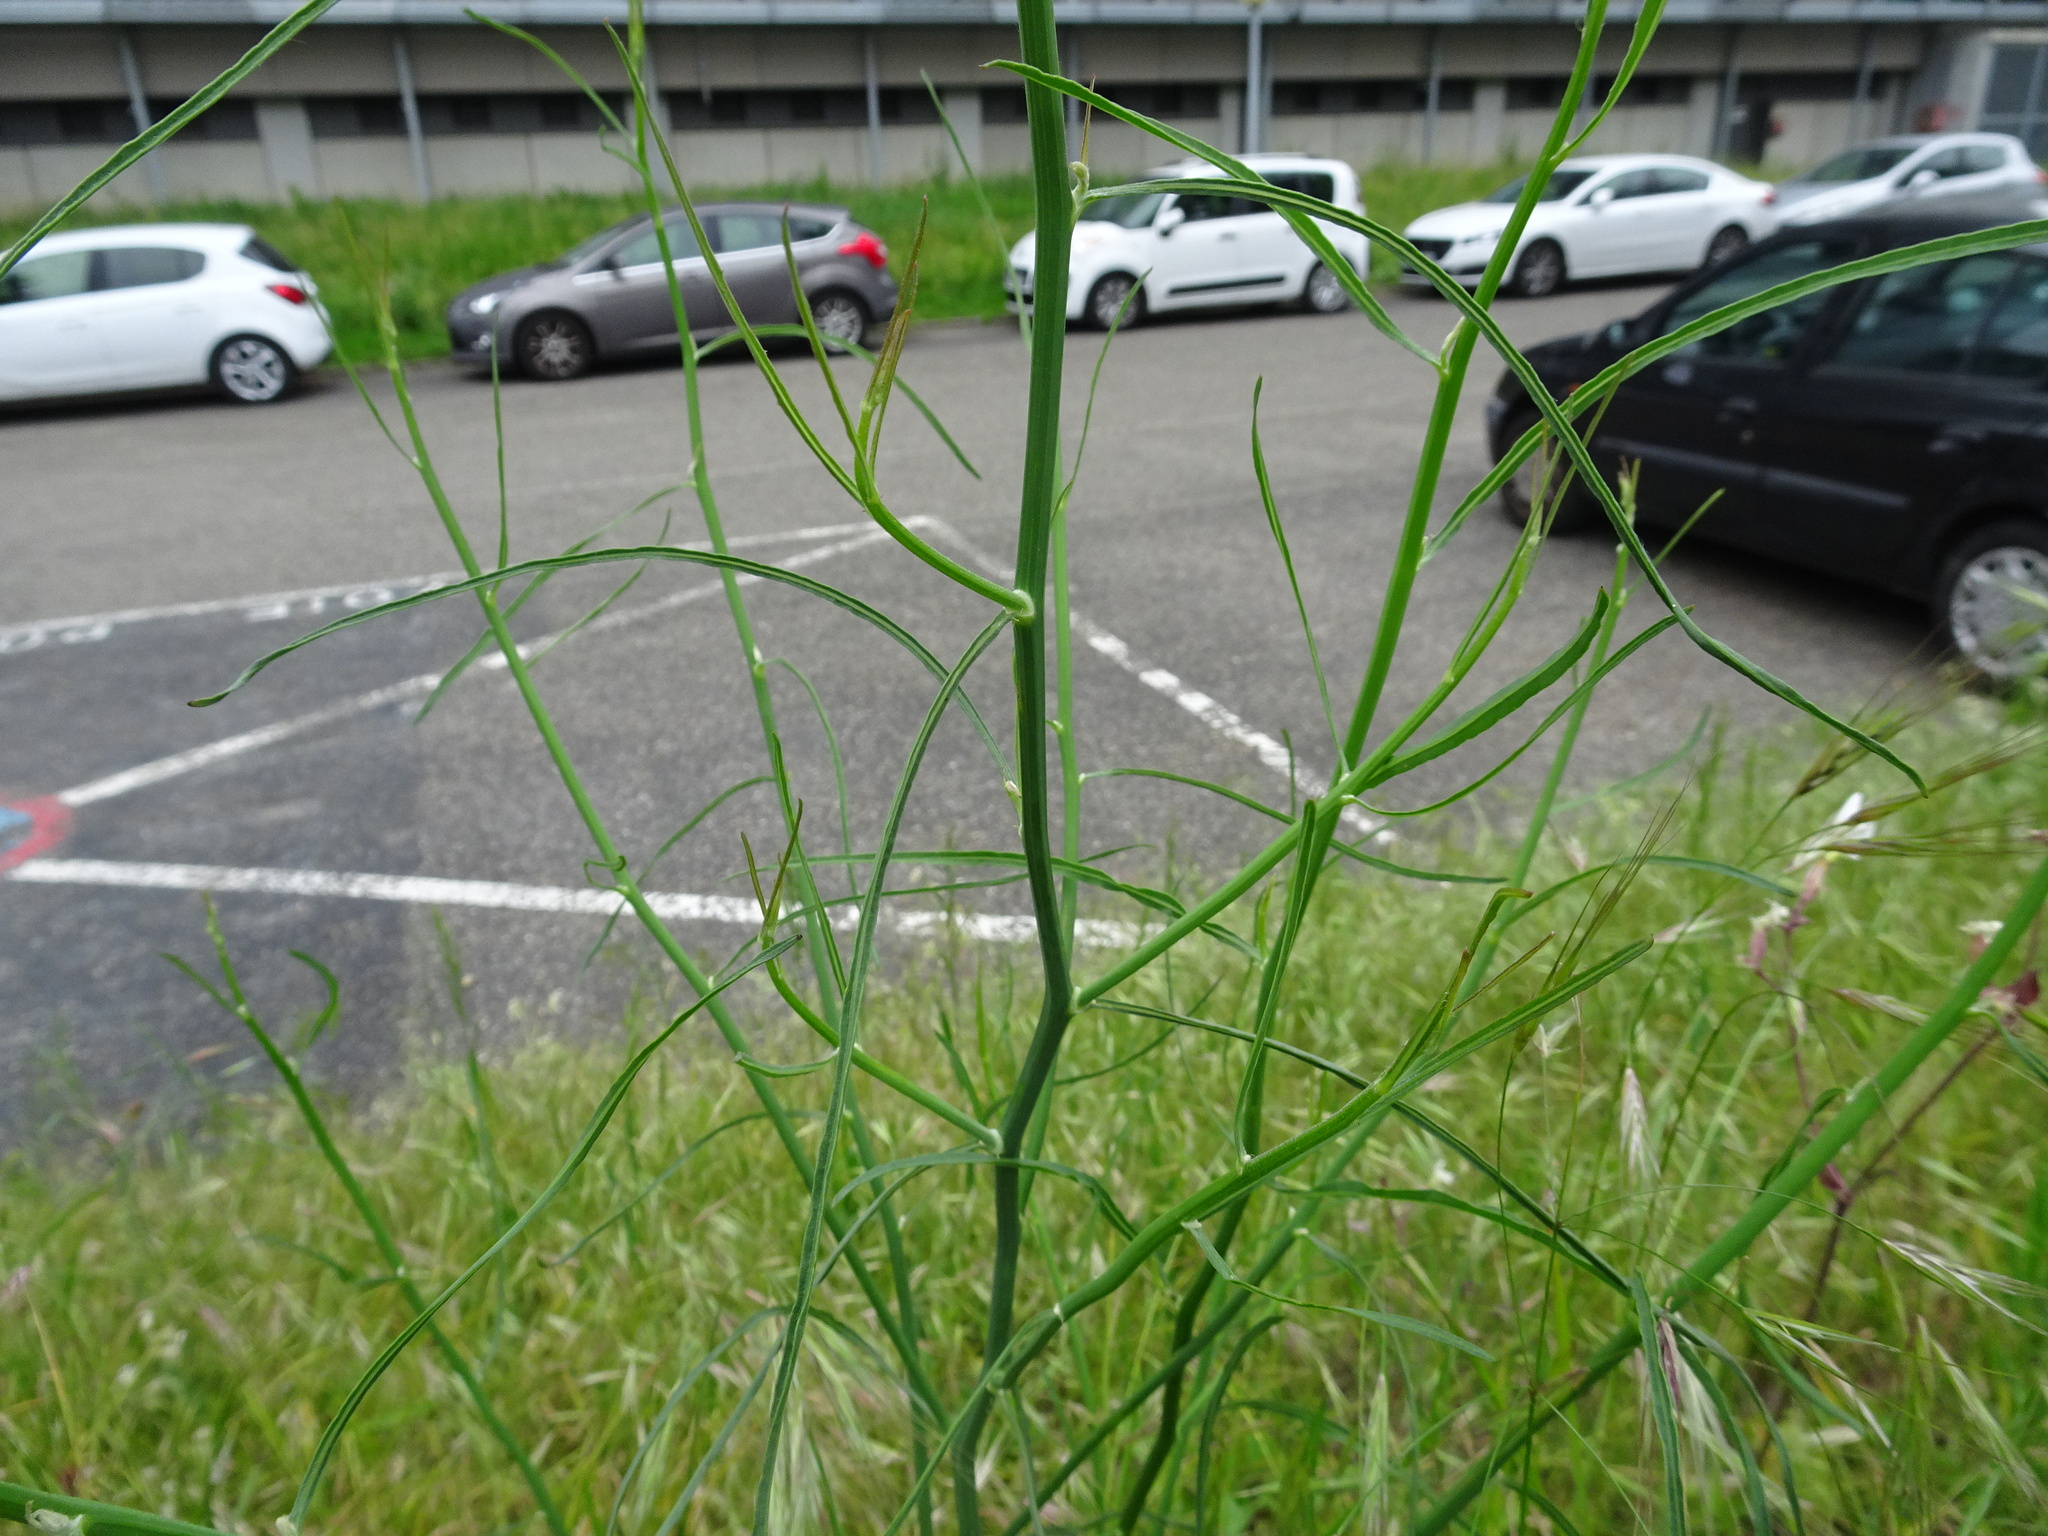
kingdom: Plantae
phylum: Tracheophyta
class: Magnoliopsida
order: Asterales
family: Asteraceae
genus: Chondrilla
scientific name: Chondrilla juncea
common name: Skeleton weed
